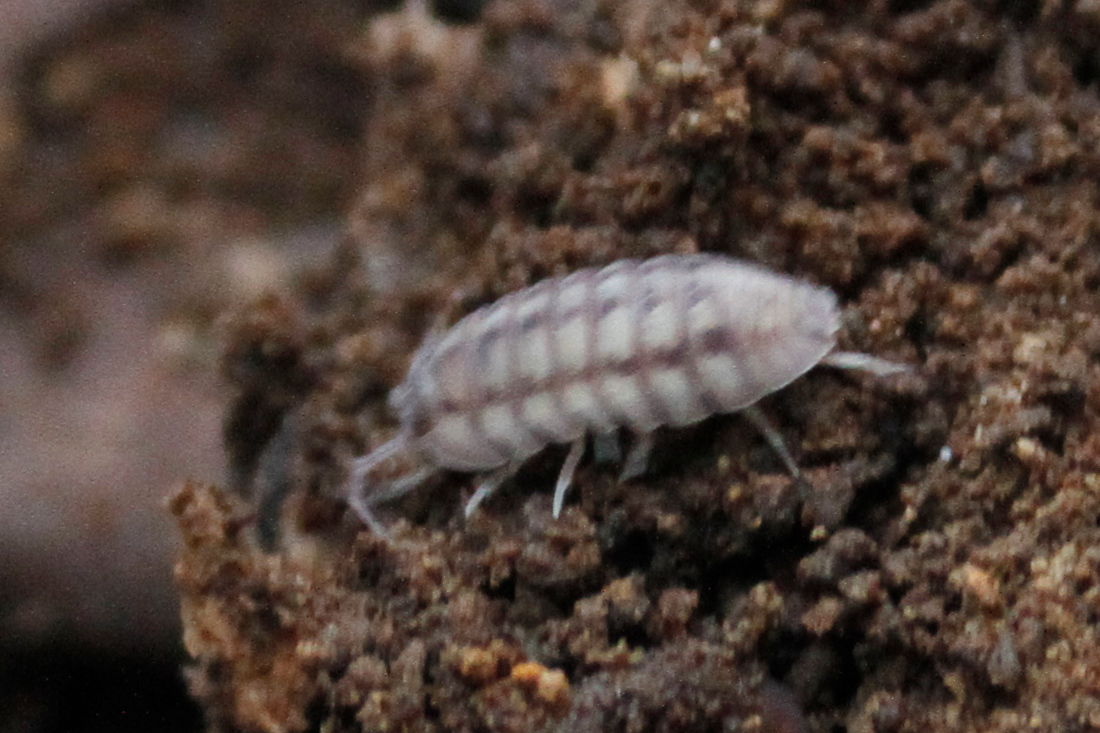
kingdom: Animalia
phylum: Arthropoda
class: Malacostraca
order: Isopoda
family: Armadillidiidae
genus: Armadillidium
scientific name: Armadillidium nasatum
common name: Isopod
